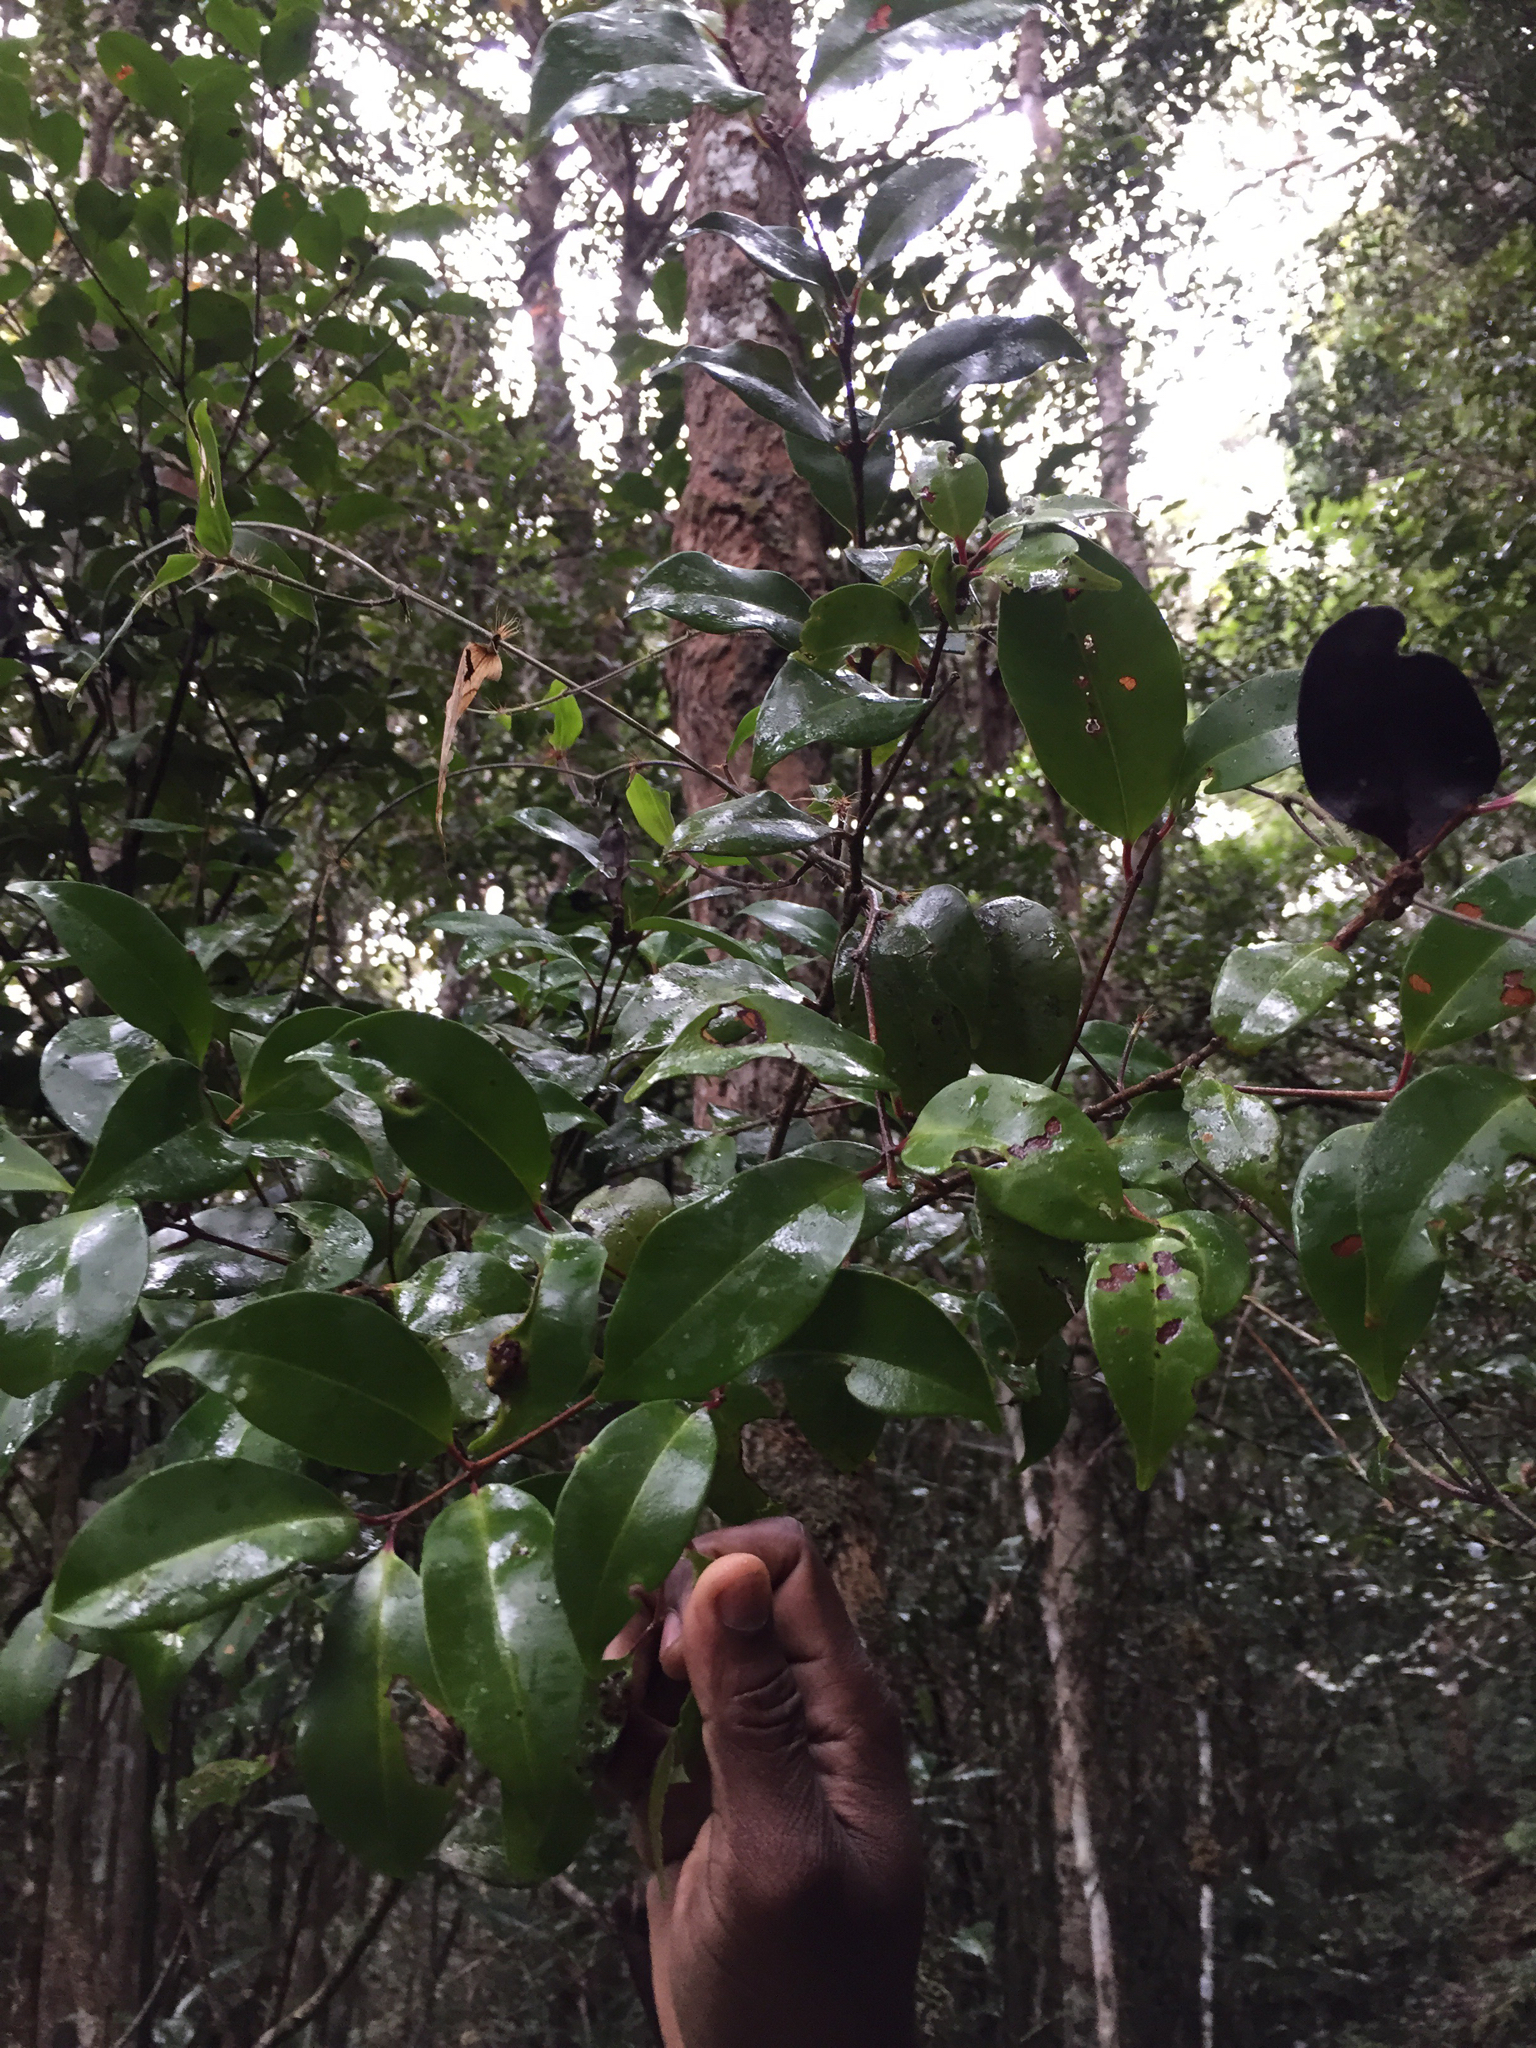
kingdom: Plantae
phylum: Tracheophyta
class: Magnoliopsida
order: Myrtales
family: Myrtaceae
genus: Eugenia
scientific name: Eugenia hazompasika
